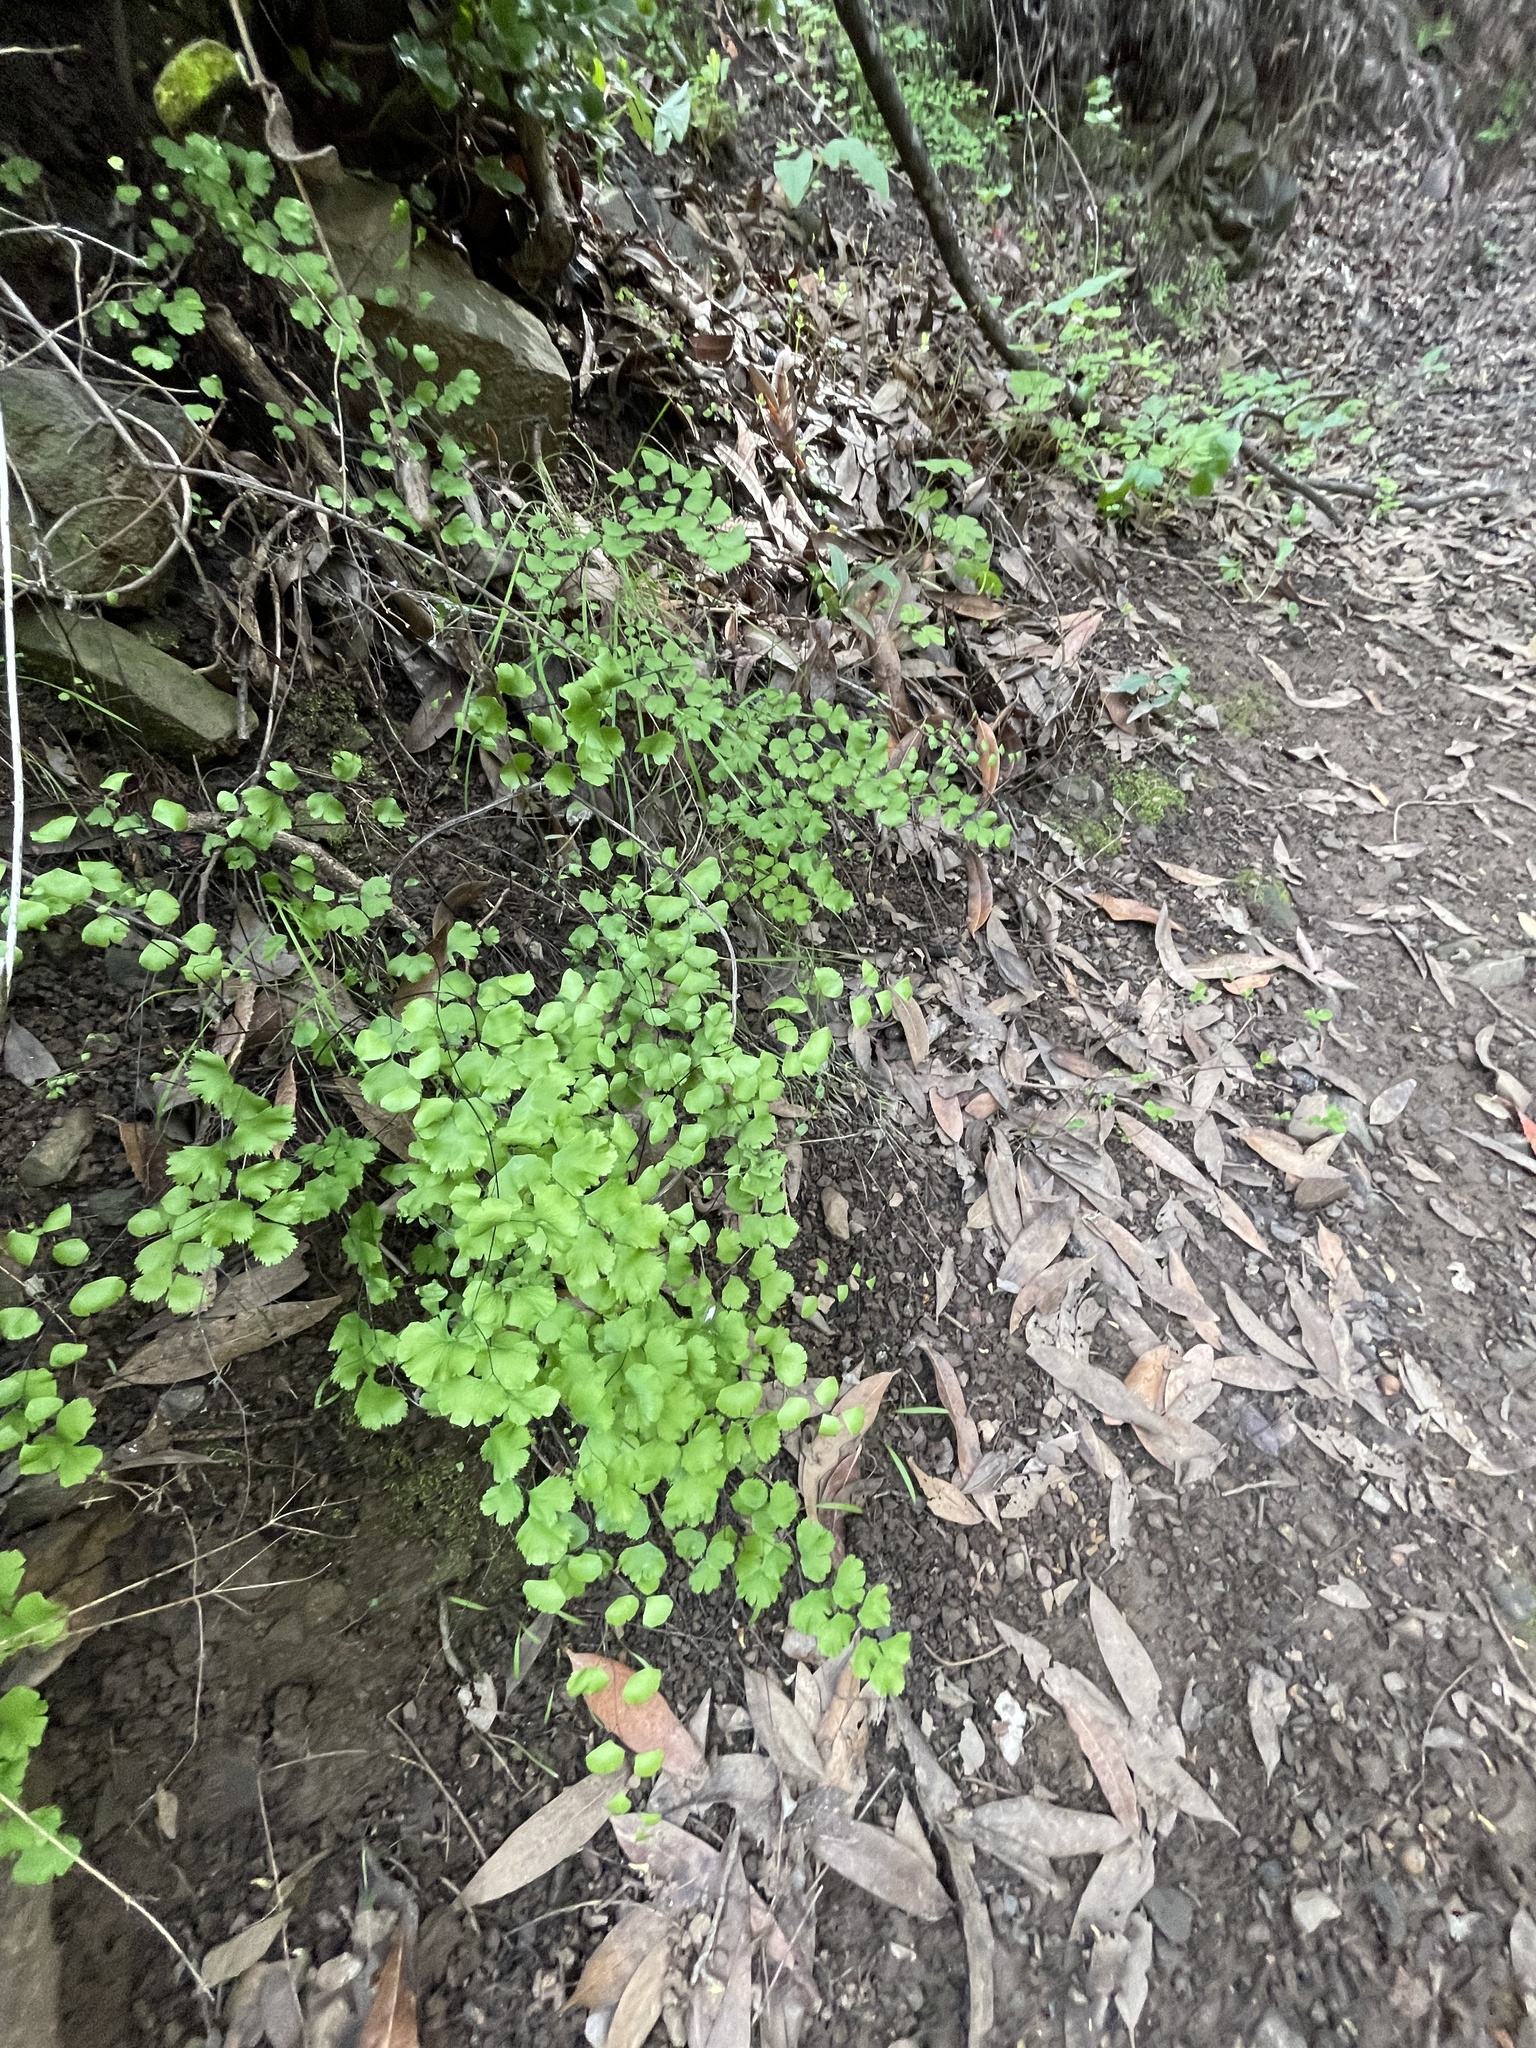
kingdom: Plantae
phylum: Tracheophyta
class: Polypodiopsida
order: Polypodiales
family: Pteridaceae
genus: Adiantum
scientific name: Adiantum jordanii
